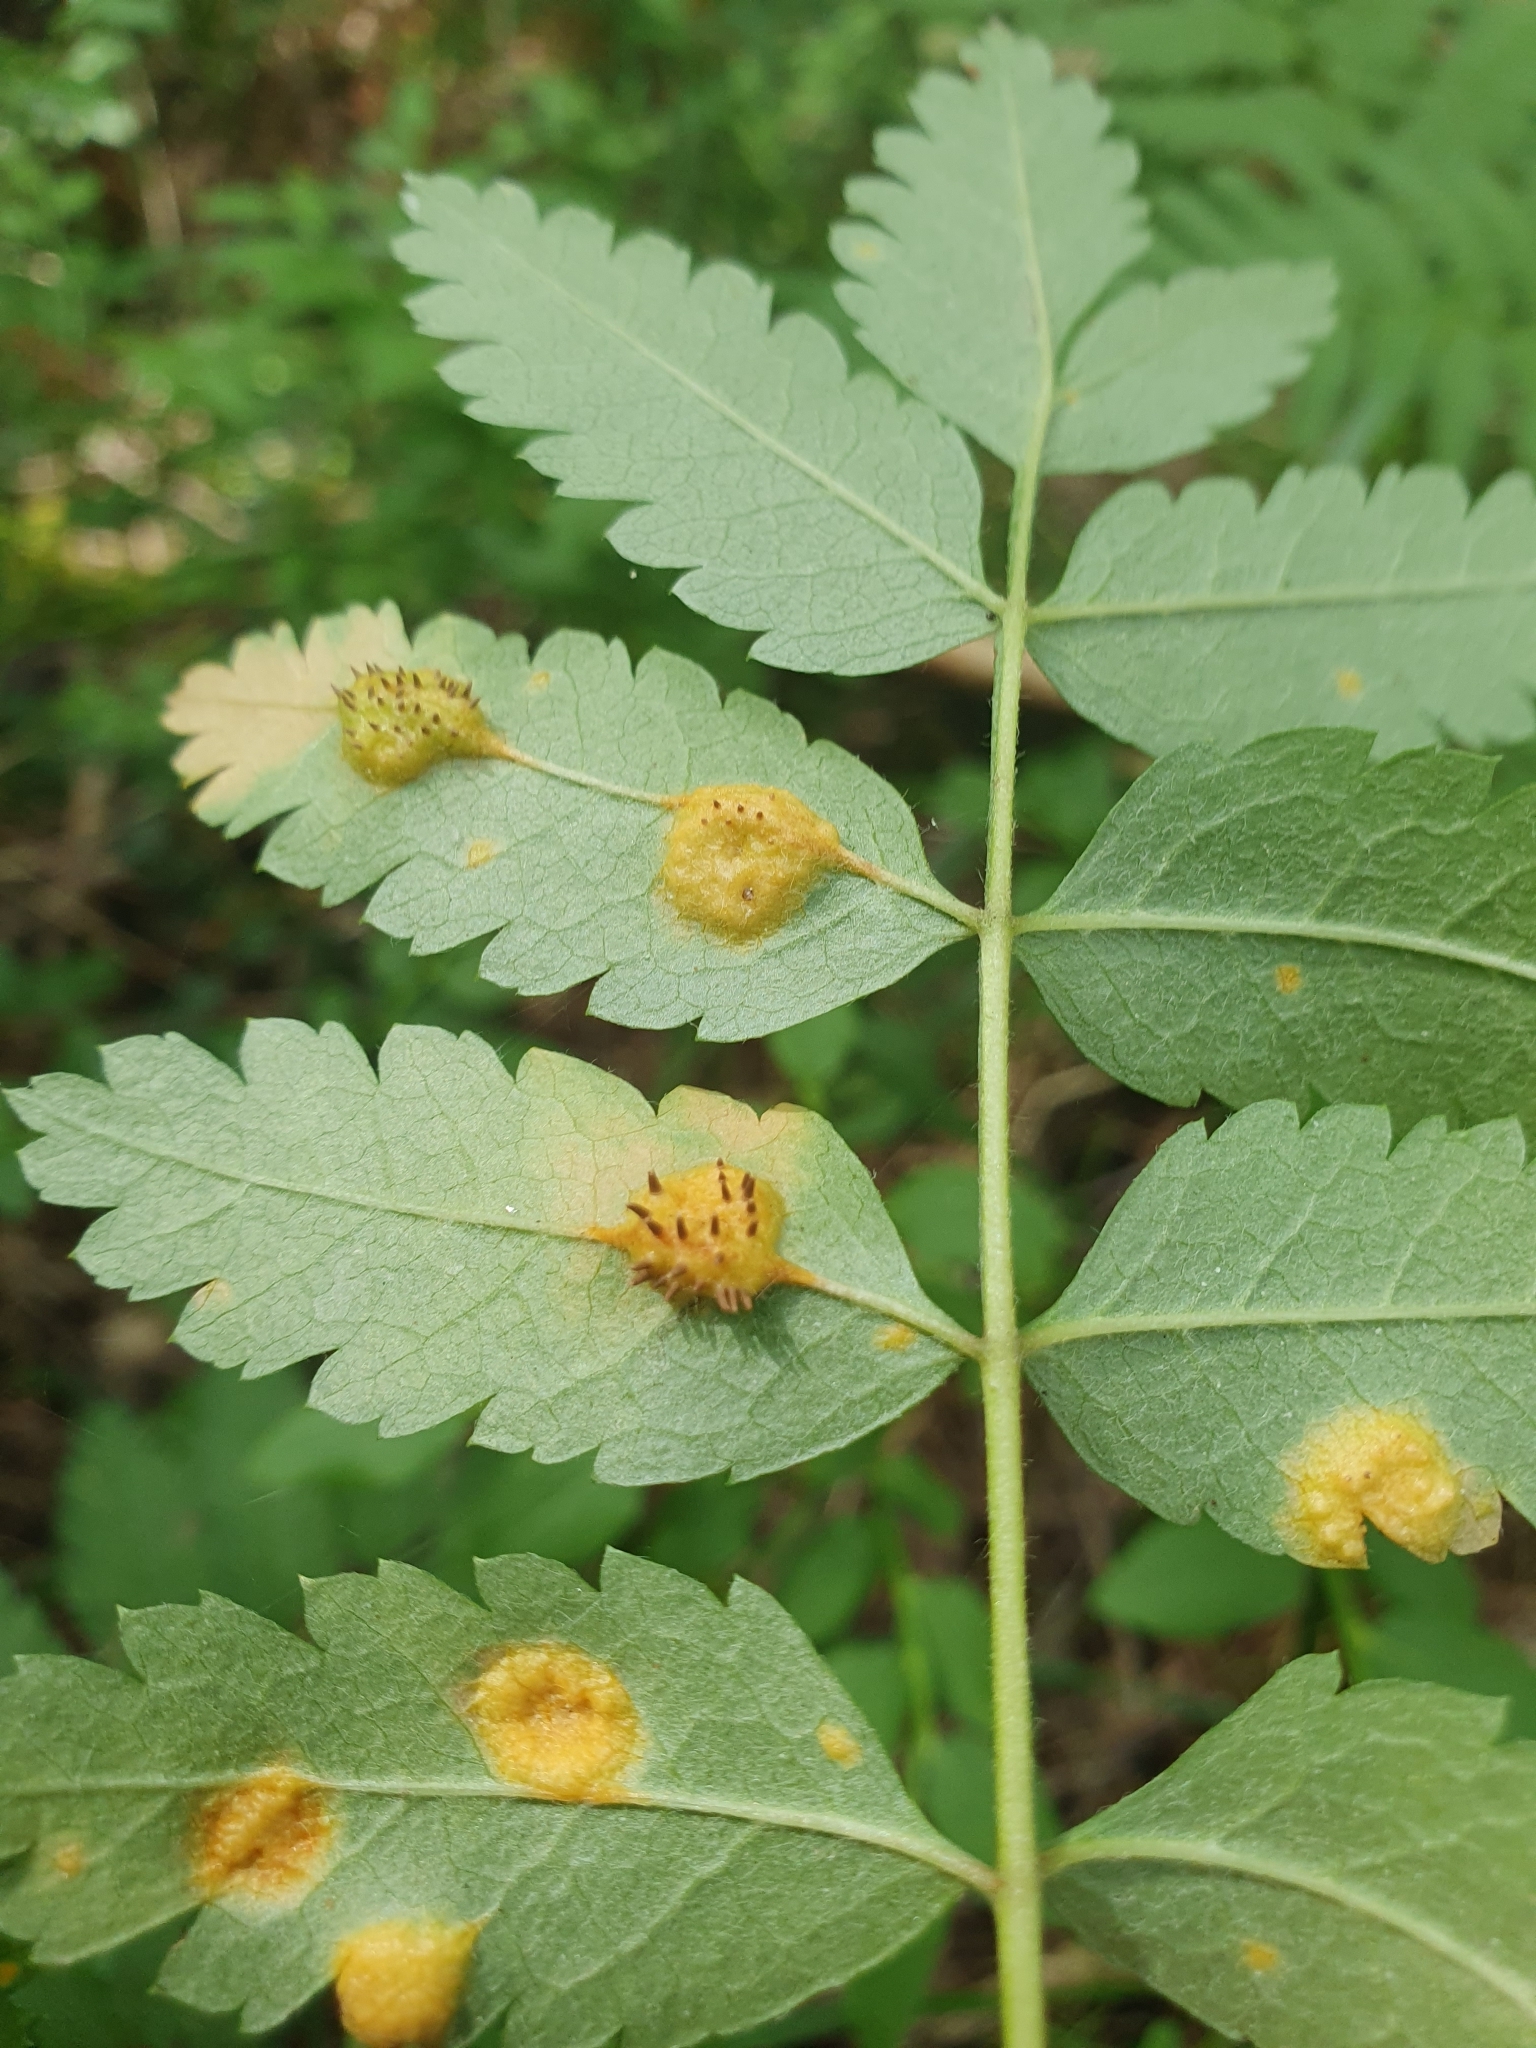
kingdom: Fungi
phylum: Basidiomycota
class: Pucciniomycetes
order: Pucciniales
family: Gymnosporangiaceae
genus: Gymnosporangium
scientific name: Gymnosporangium cornutum
